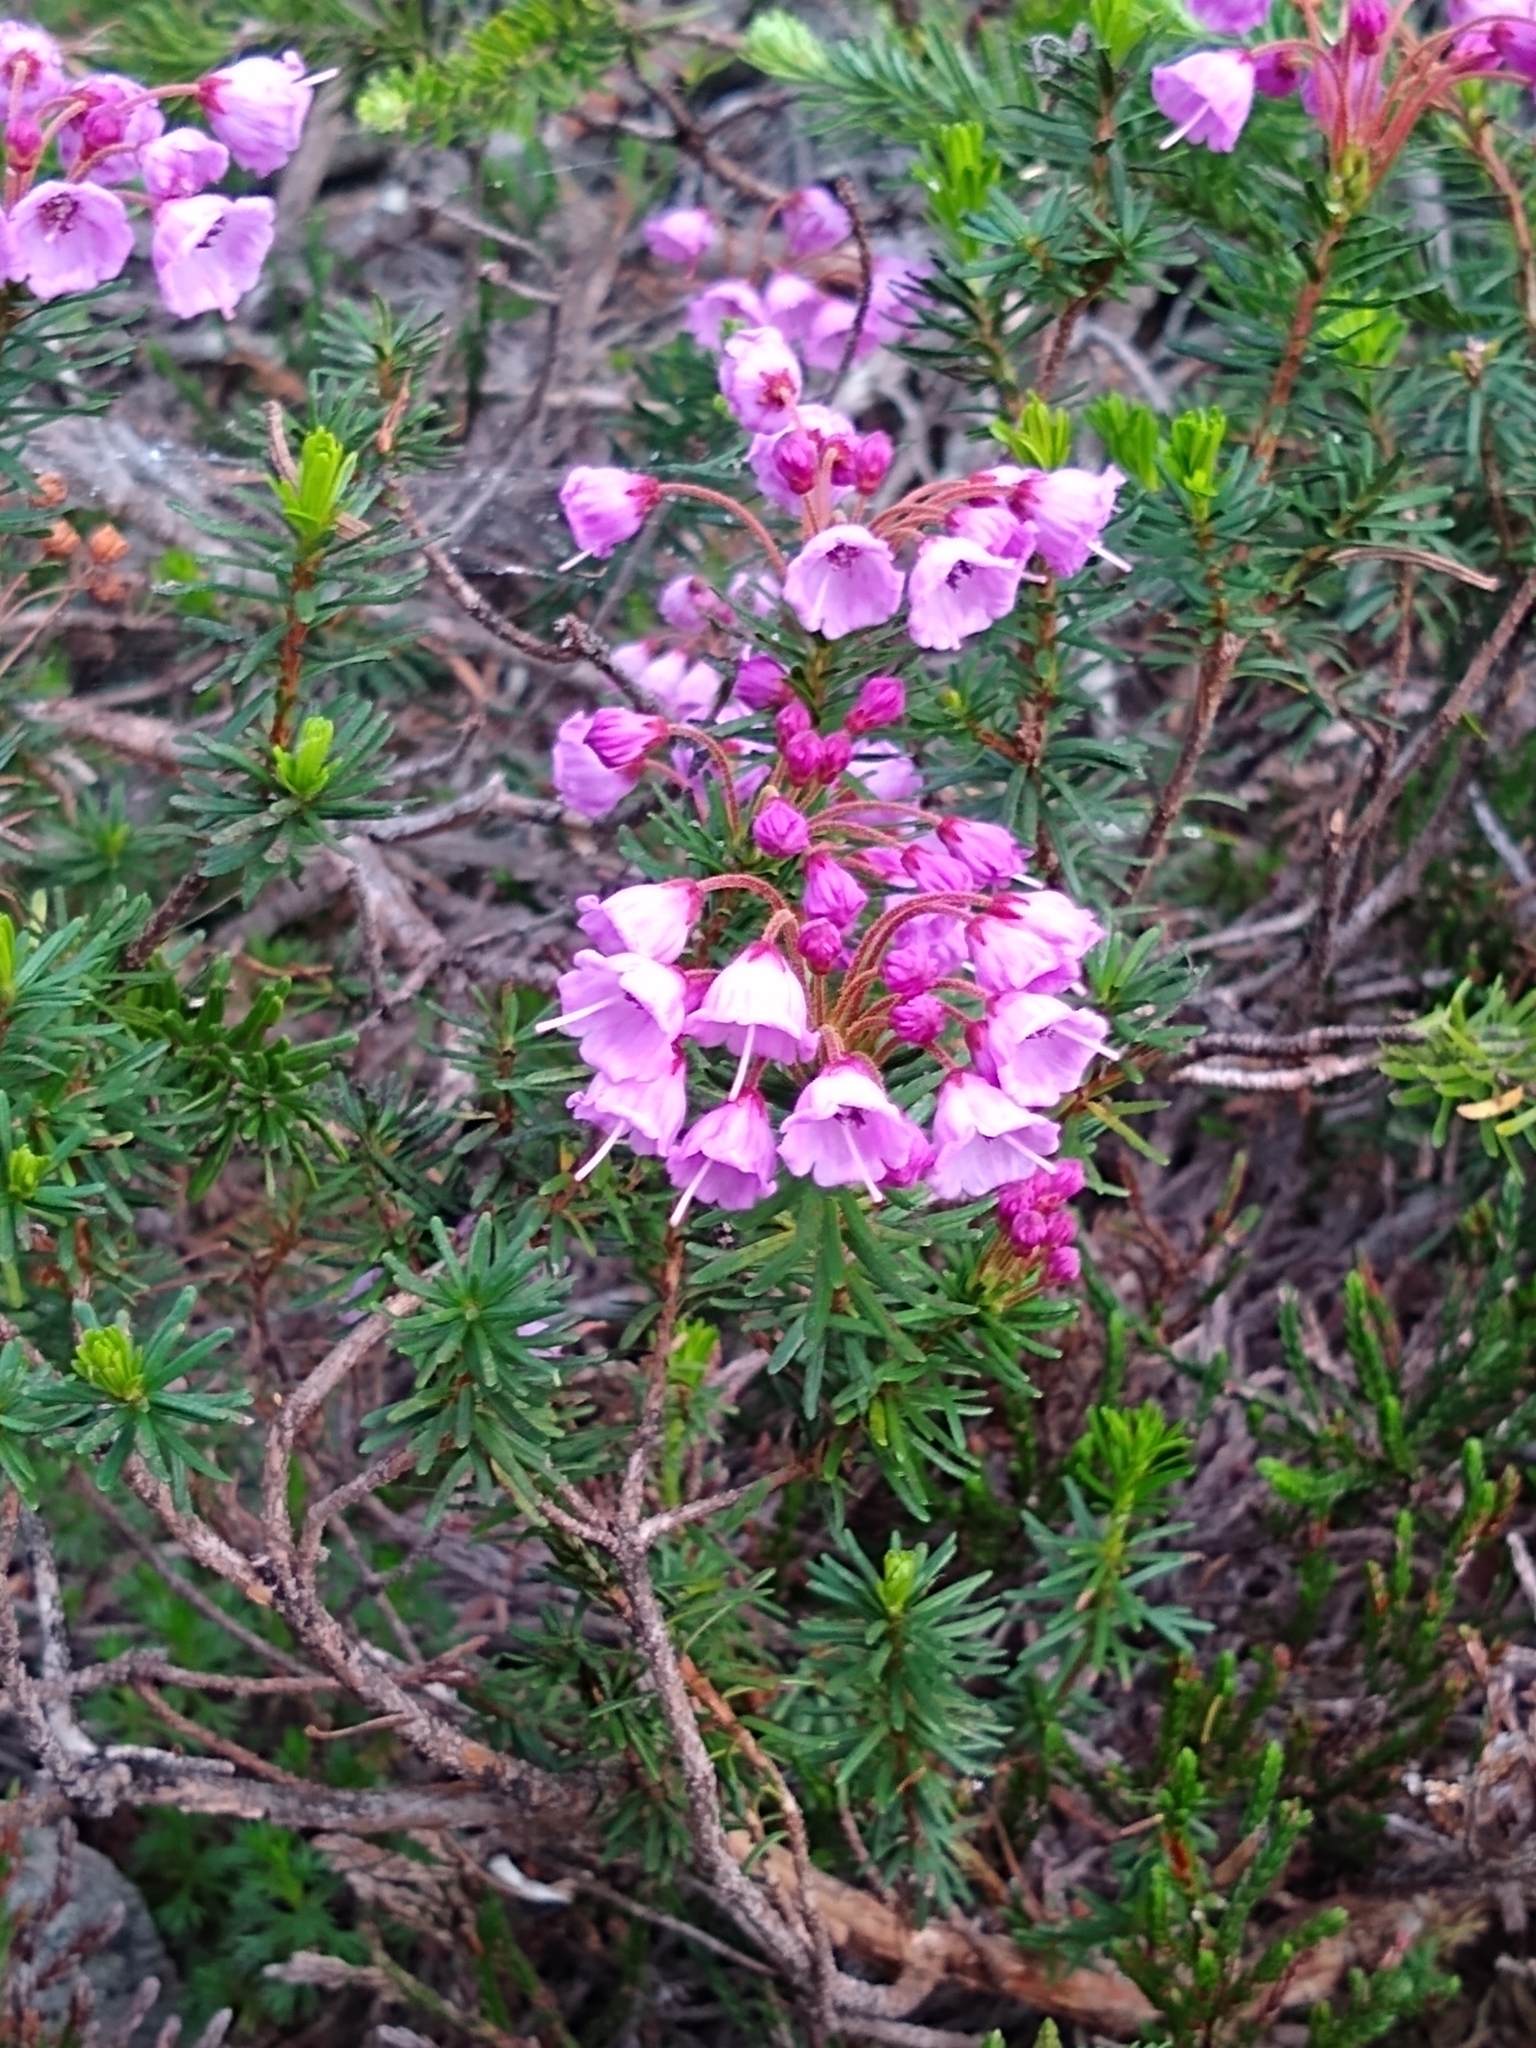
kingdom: Plantae
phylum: Tracheophyta
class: Magnoliopsida
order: Ericales
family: Ericaceae
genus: Phyllodoce
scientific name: Phyllodoce empetriformis
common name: Pink mountain heather
